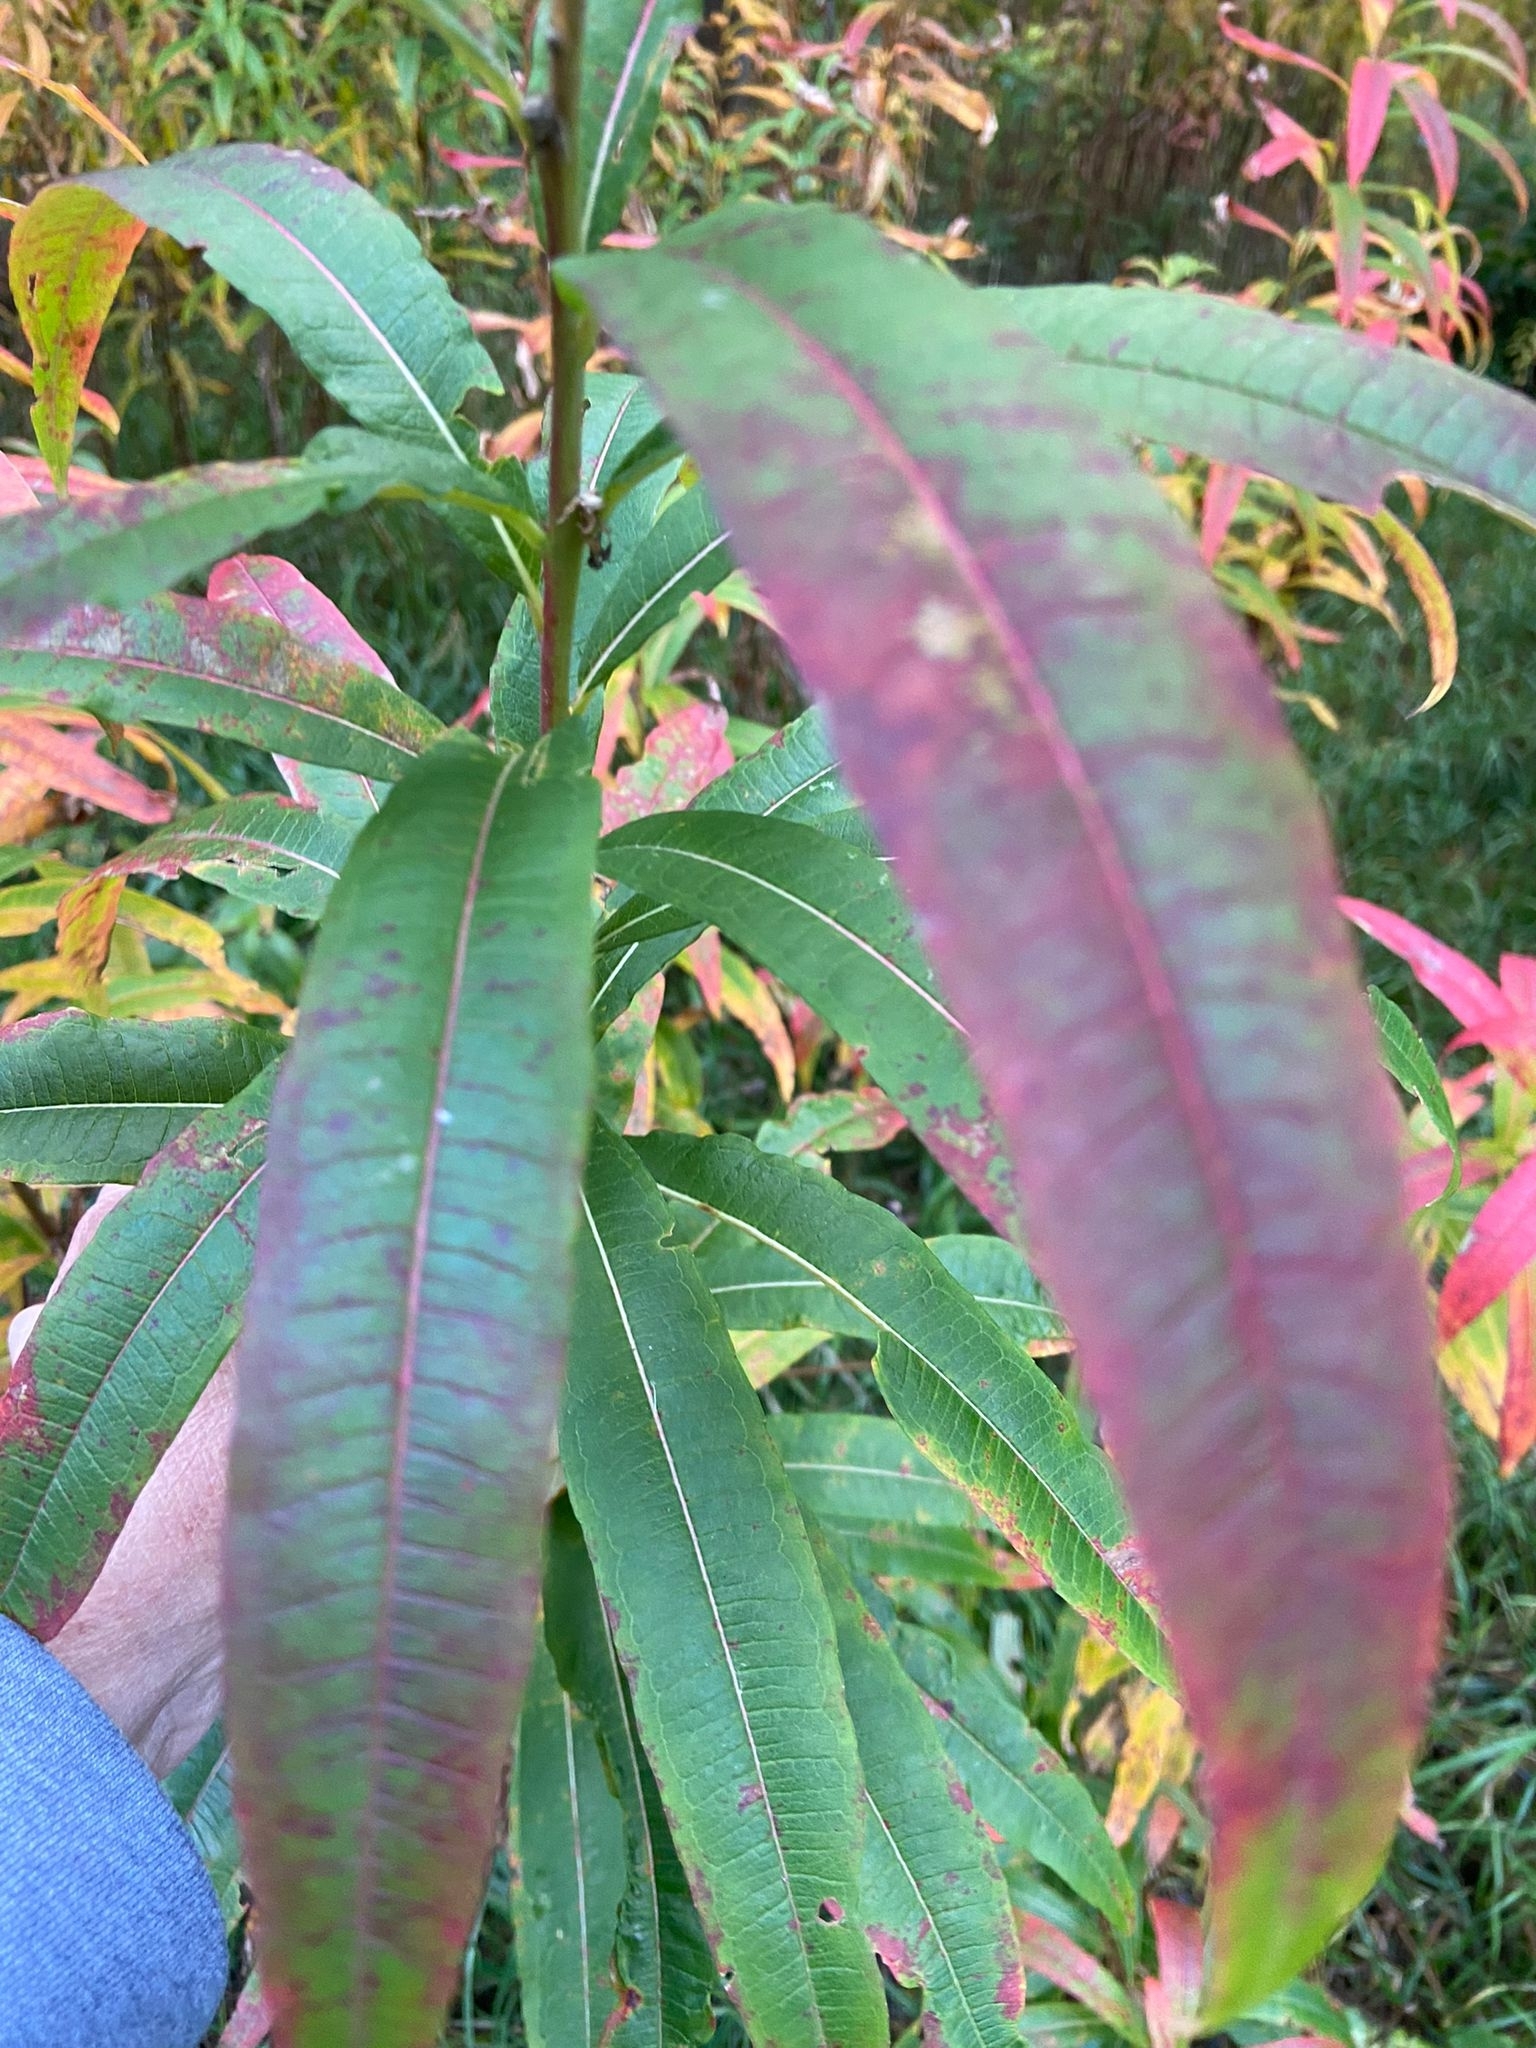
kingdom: Plantae
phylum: Tracheophyta
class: Magnoliopsida
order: Myrtales
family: Onagraceae
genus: Chamaenerion
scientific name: Chamaenerion angustifolium
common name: Fireweed
